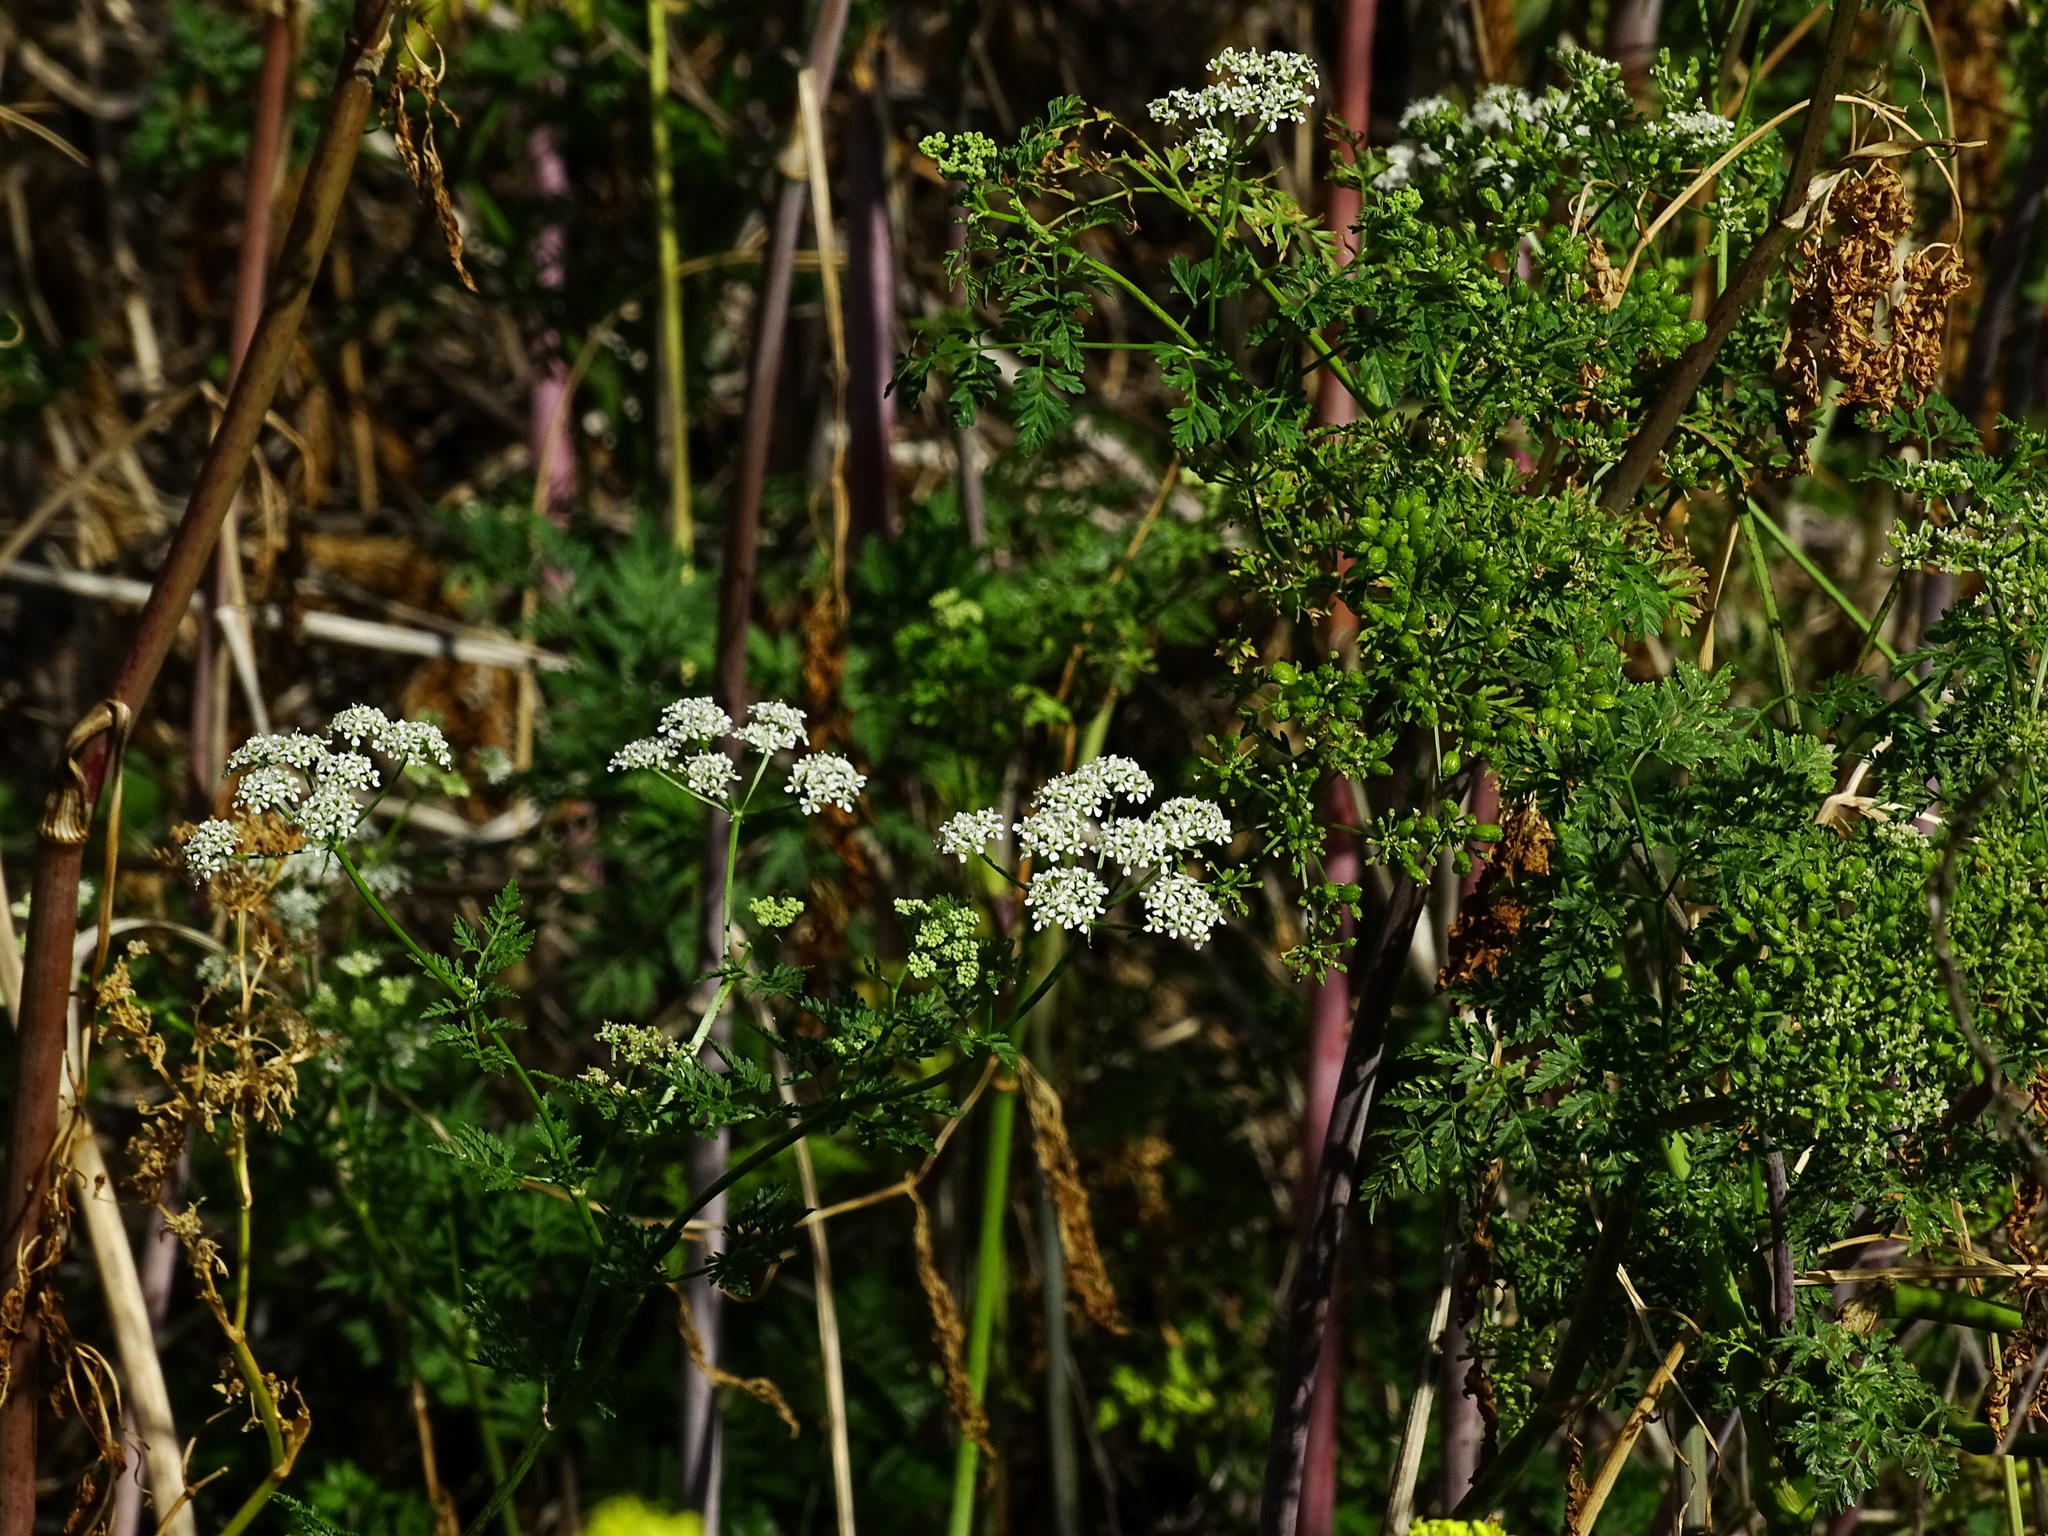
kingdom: Plantae
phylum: Tracheophyta
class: Magnoliopsida
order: Apiales
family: Apiaceae
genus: Conium
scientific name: Conium maculatum
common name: Hemlock
